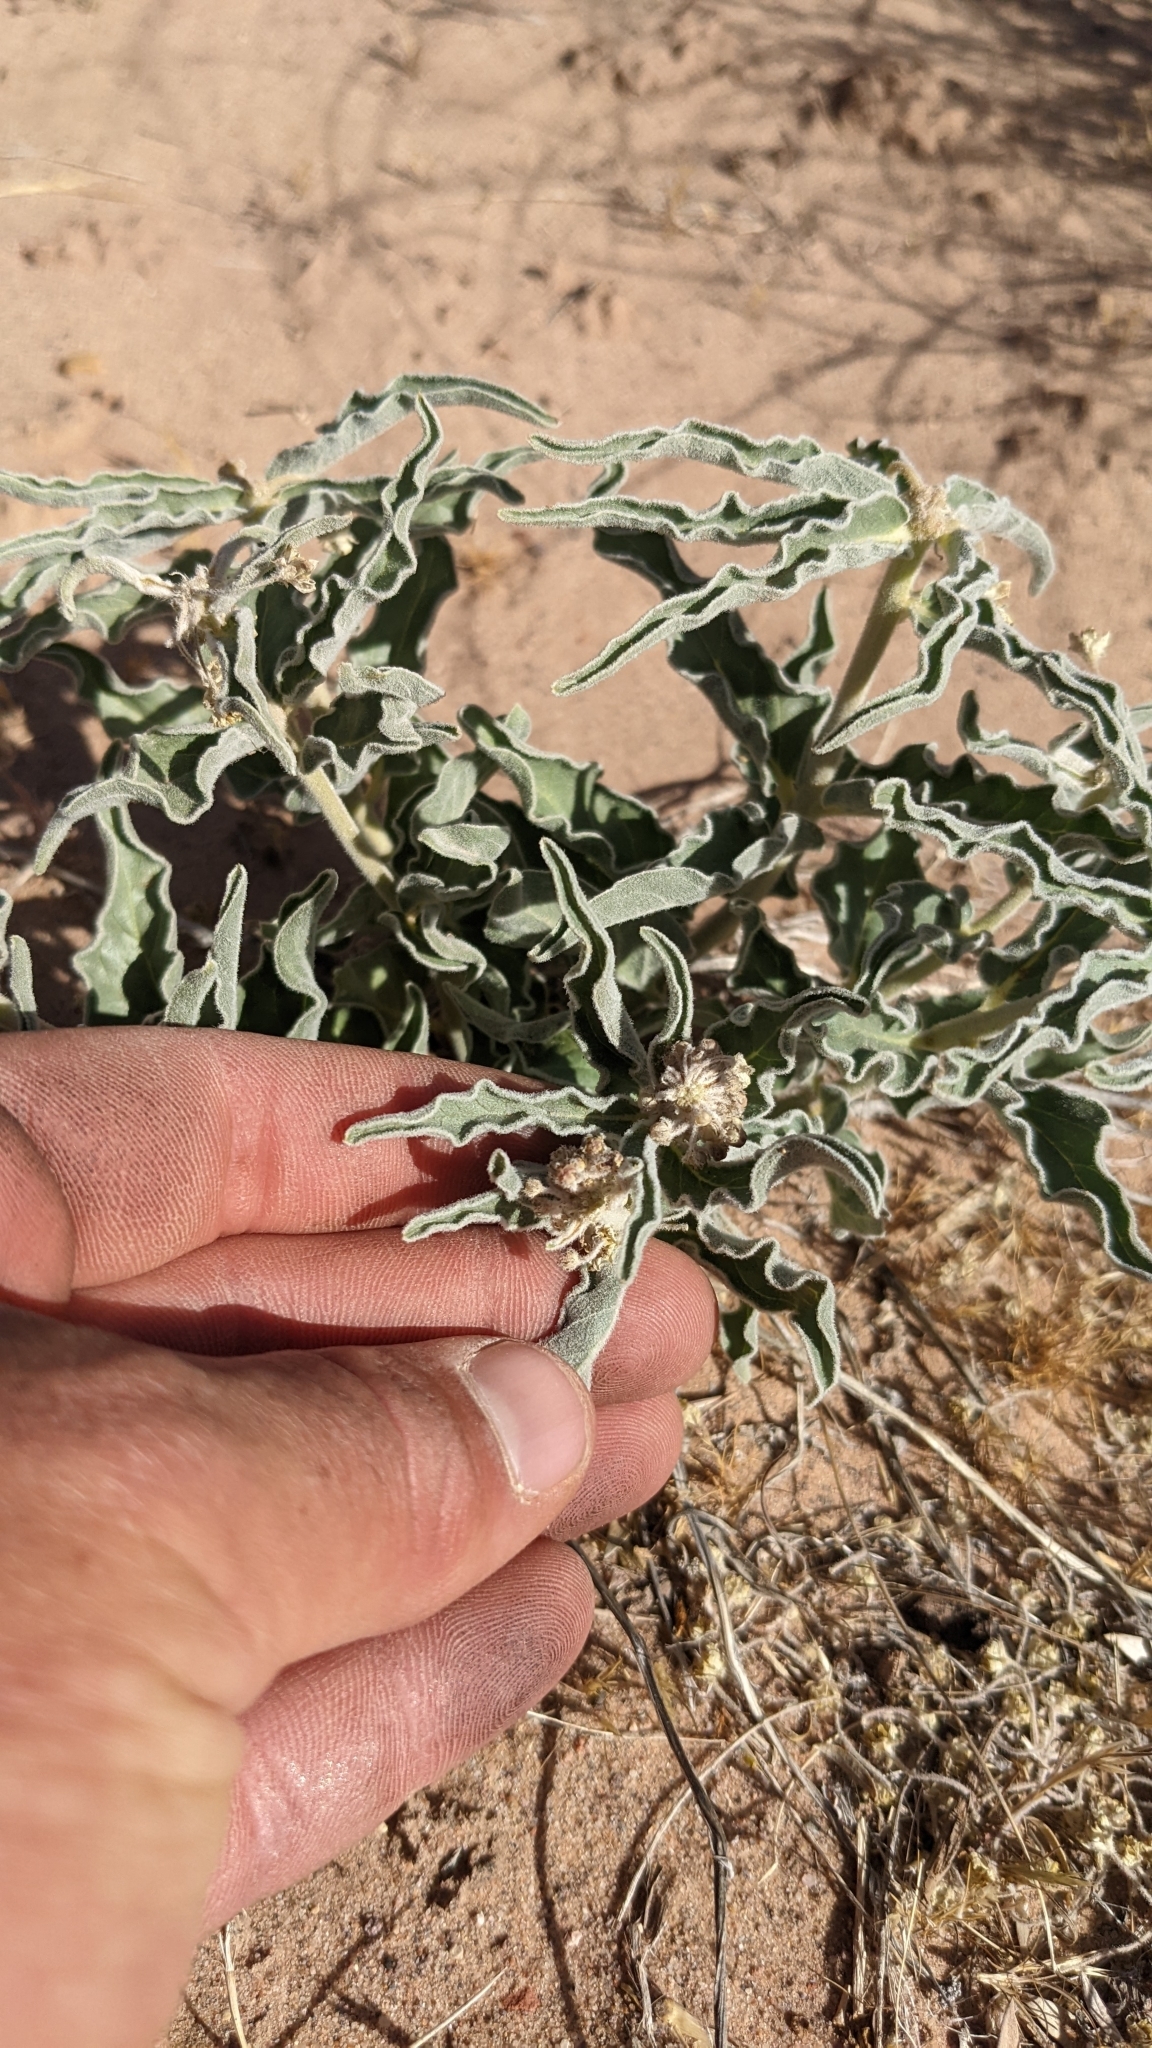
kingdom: Plantae
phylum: Tracheophyta
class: Magnoliopsida
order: Gentianales
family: Apocynaceae
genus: Asclepias
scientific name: Asclepias involucrata
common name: Dwarf milkweed
